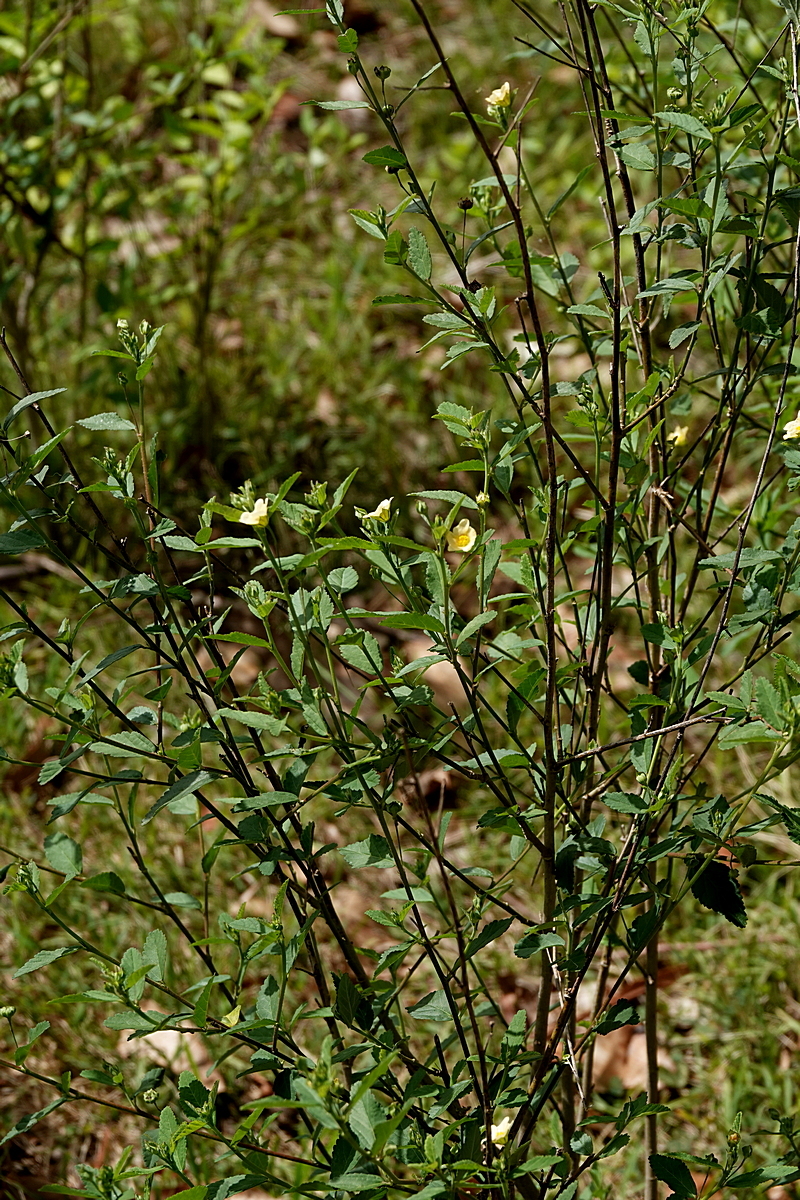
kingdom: Plantae
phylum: Tracheophyta
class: Magnoliopsida
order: Malvales
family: Malvaceae
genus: Sida
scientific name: Sida rhombifolia
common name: Queensland-hemp
